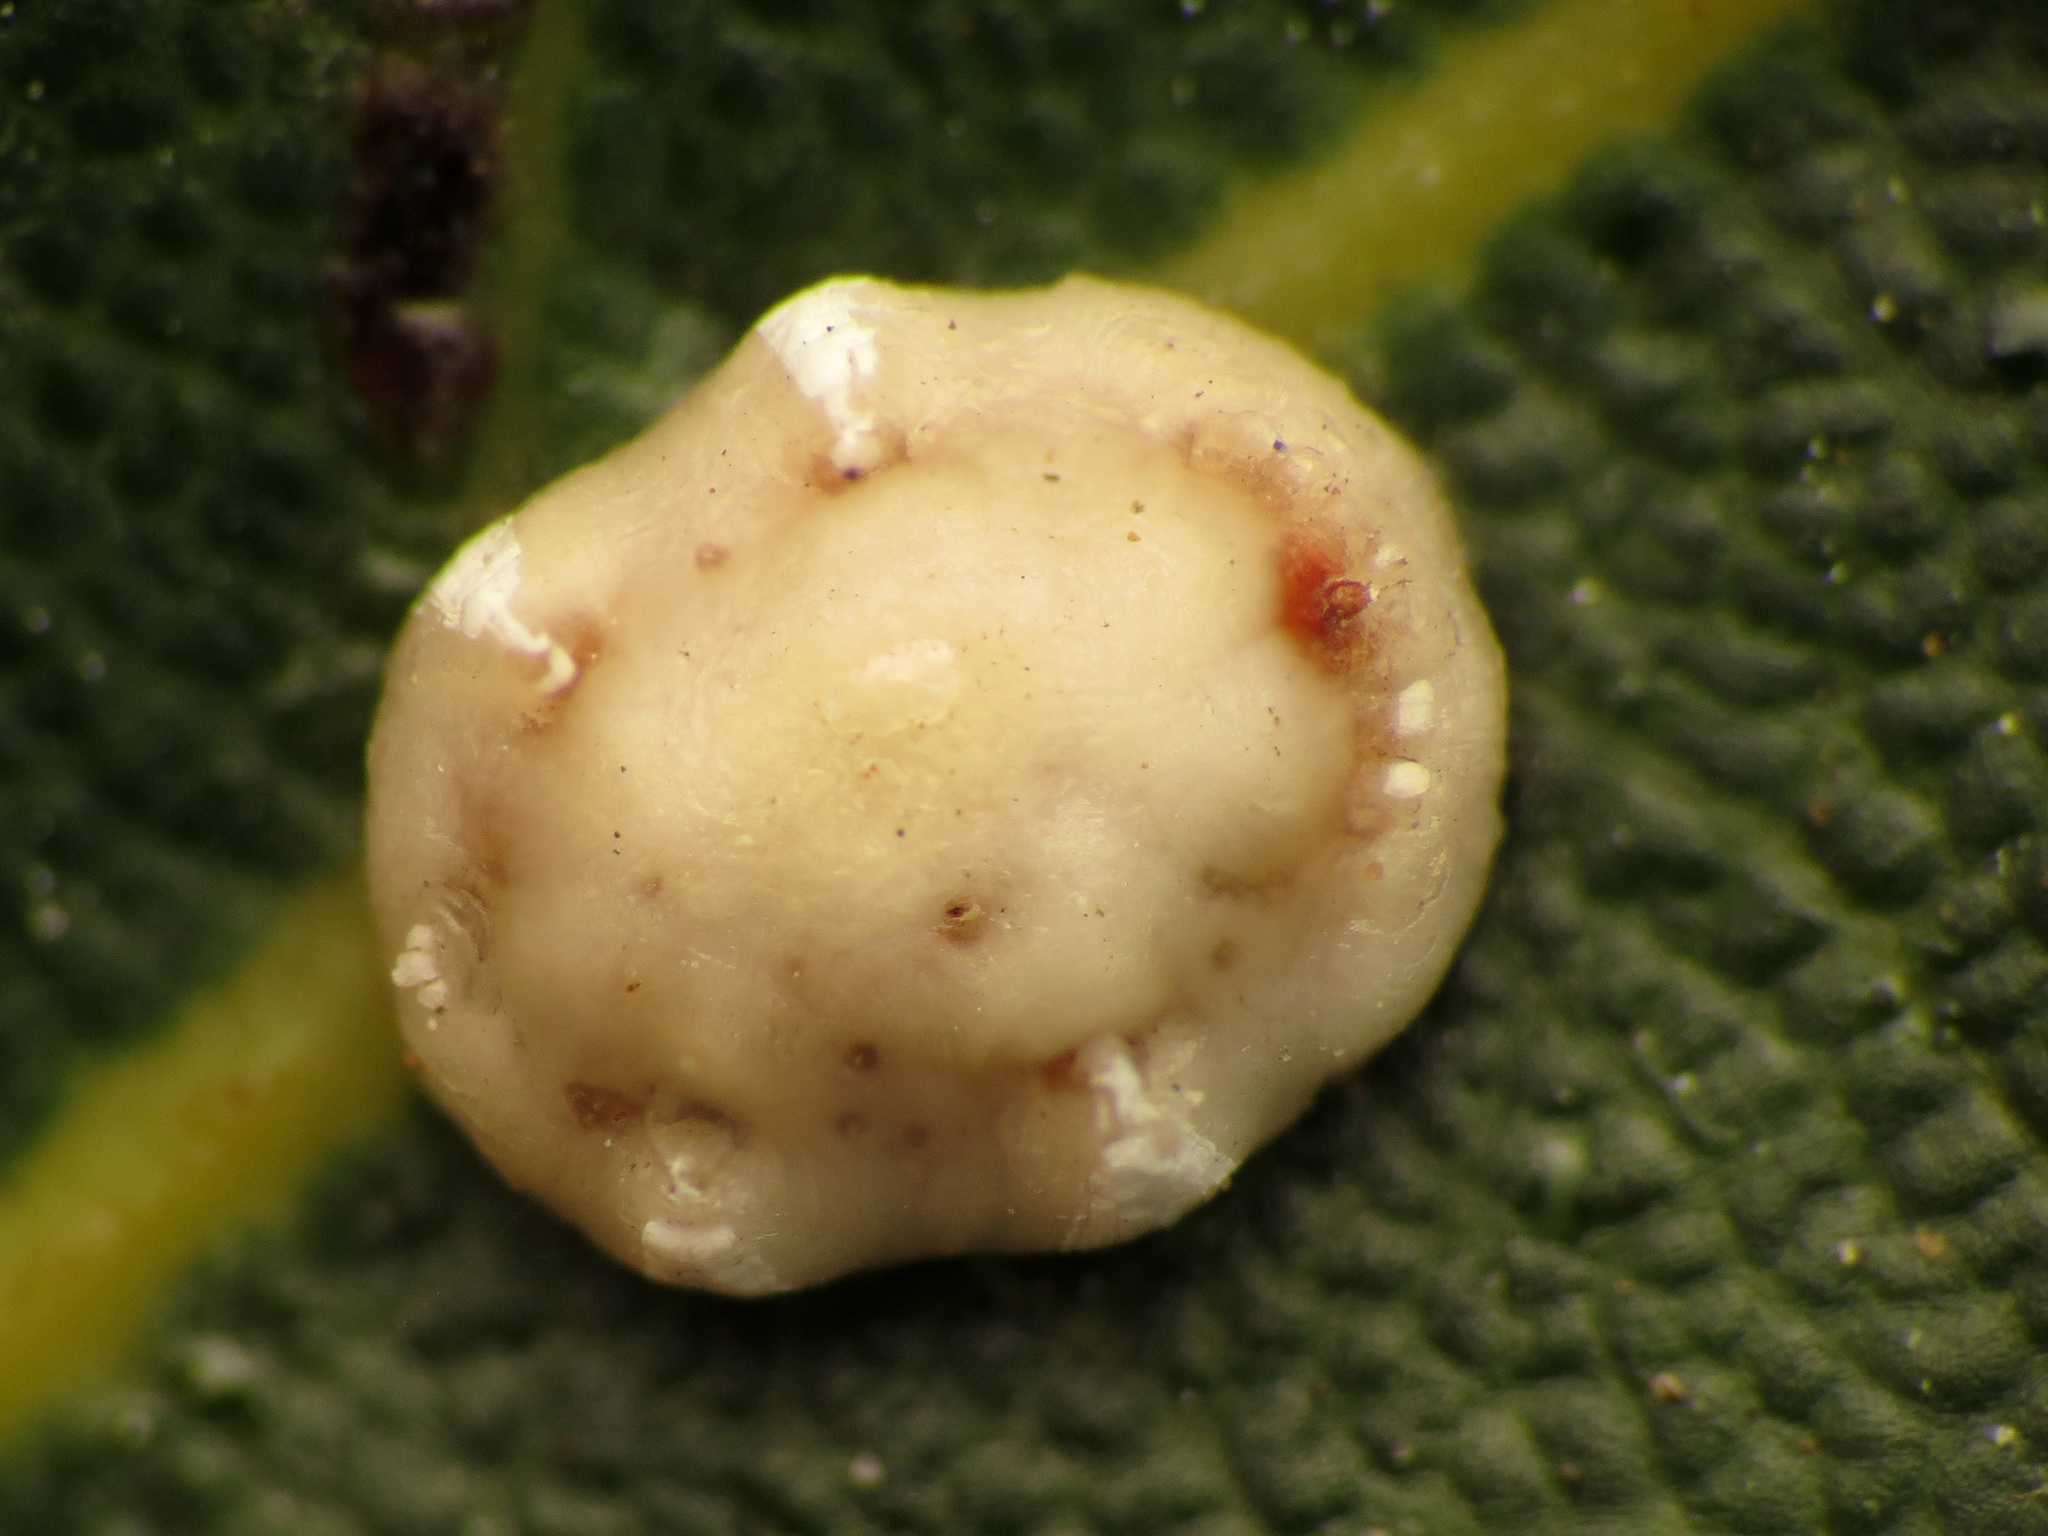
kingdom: Animalia
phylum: Arthropoda
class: Insecta
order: Hemiptera
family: Coccidae
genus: Ceroplastes
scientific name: Ceroplastes floridensis
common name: Florida wax scale
